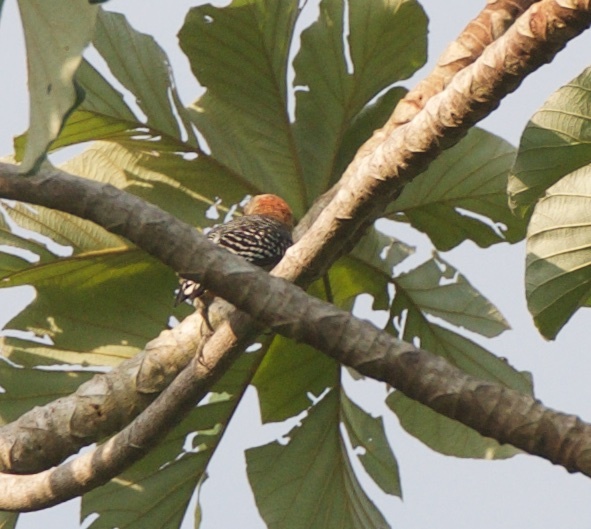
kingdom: Animalia
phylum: Chordata
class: Aves
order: Piciformes
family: Picidae
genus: Melanerpes
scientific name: Melanerpes rubricapillus
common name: Red-crowned woodpecker
